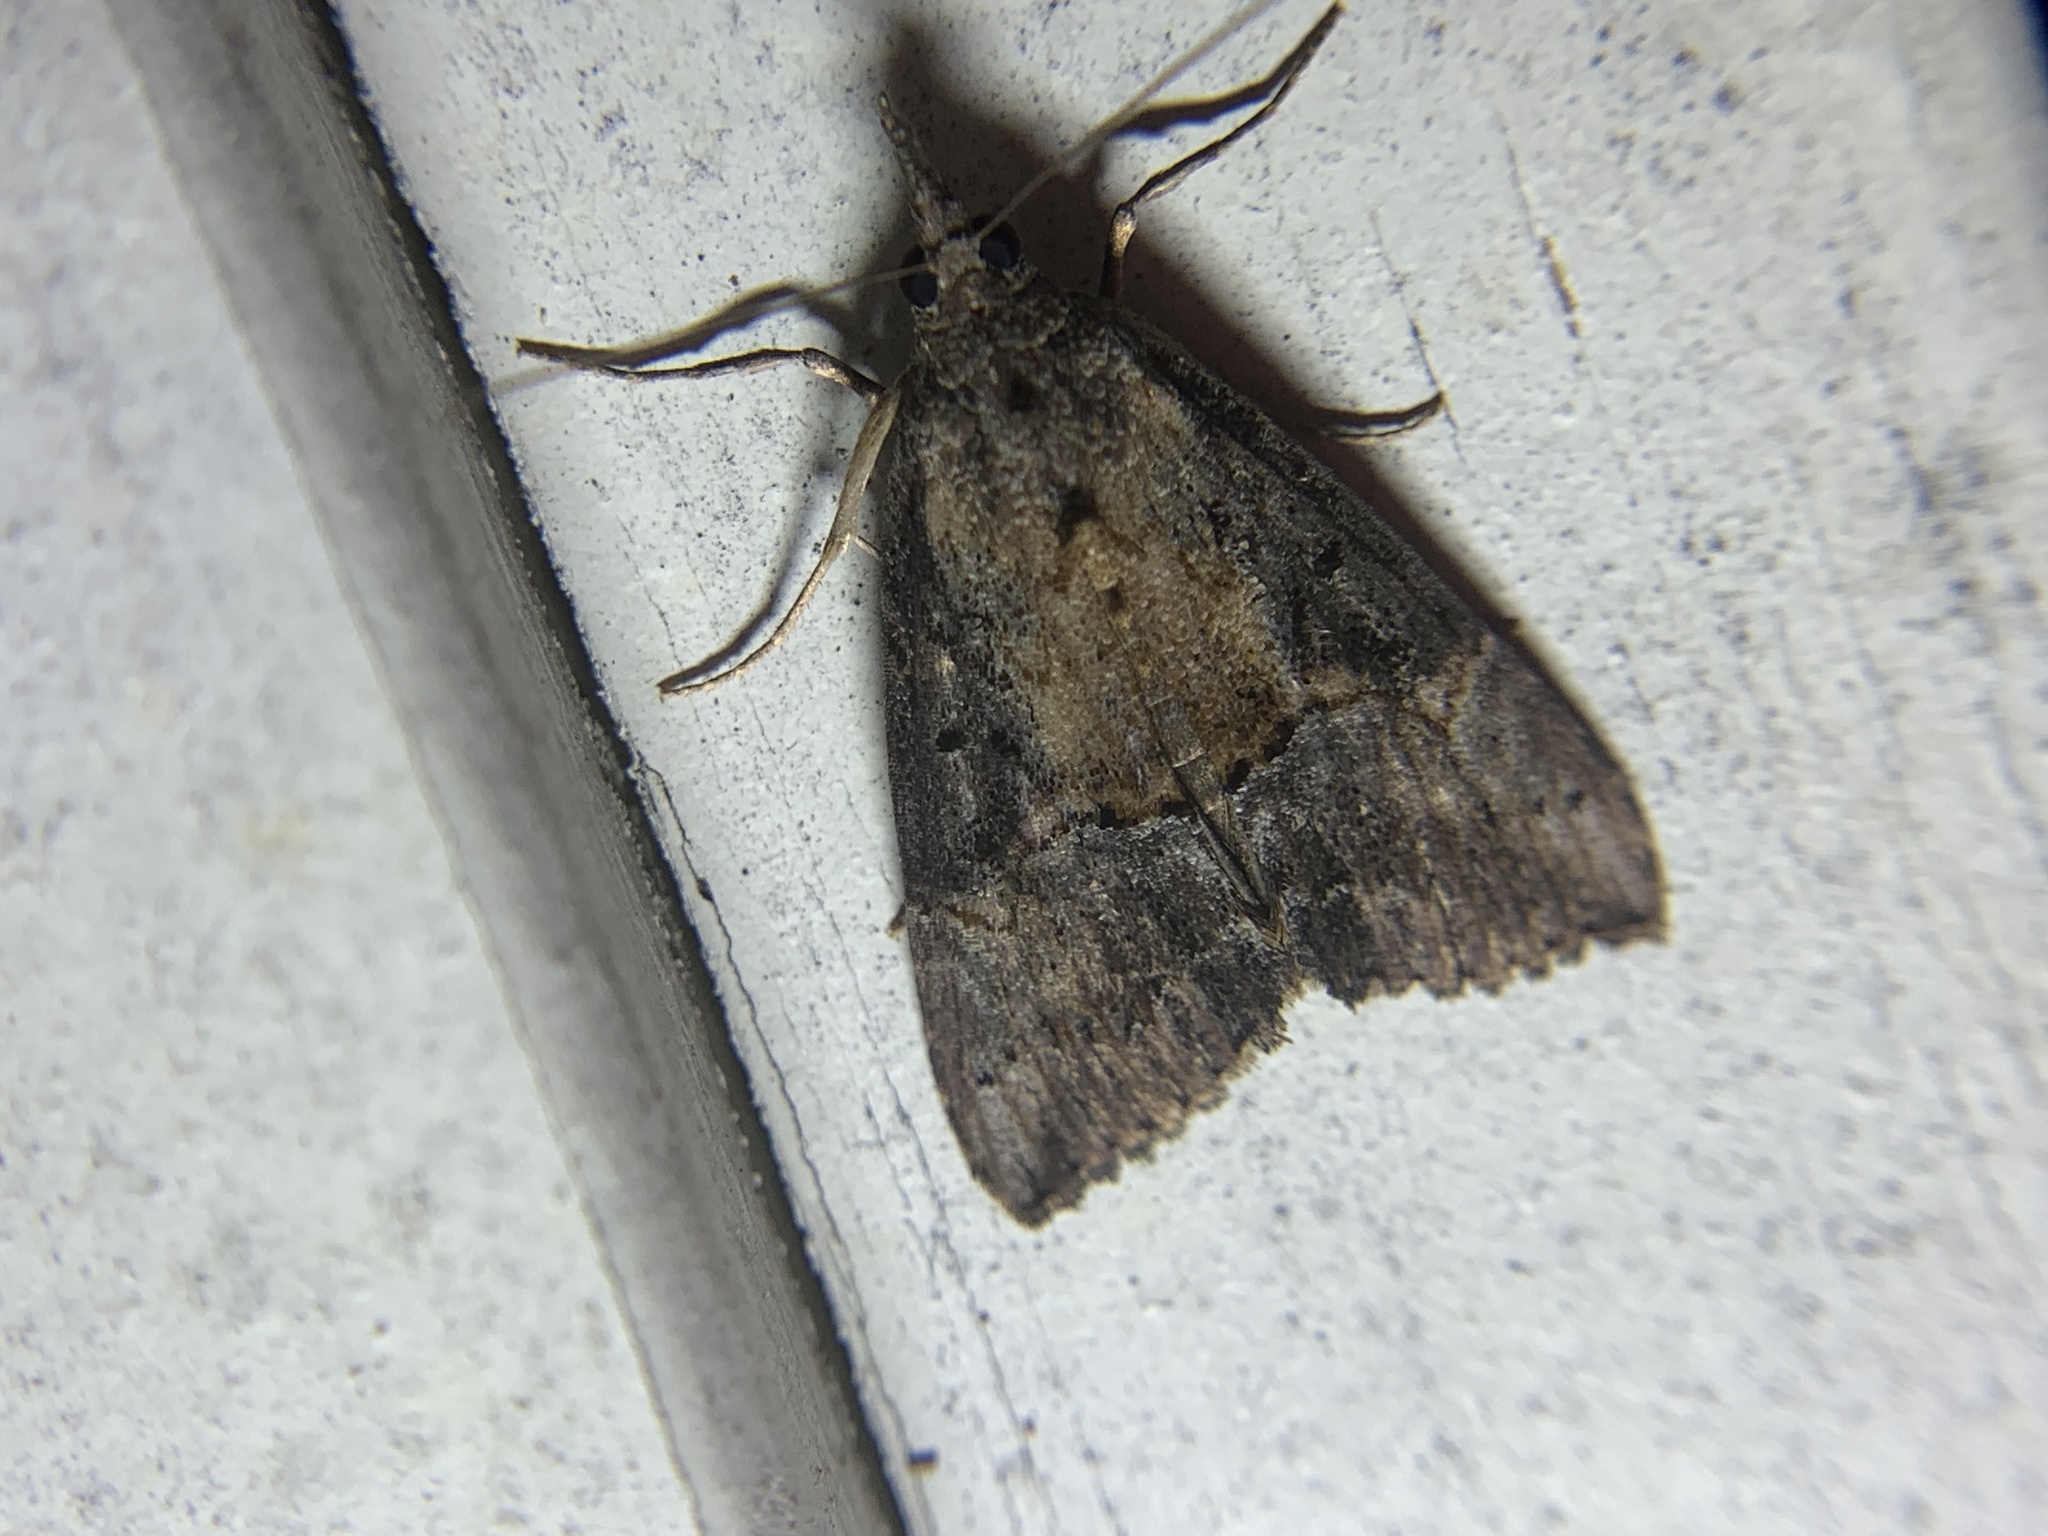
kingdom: Animalia
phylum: Arthropoda
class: Insecta
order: Lepidoptera
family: Erebidae
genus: Hypena
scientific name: Hypena scabra
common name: Green cloverworm
